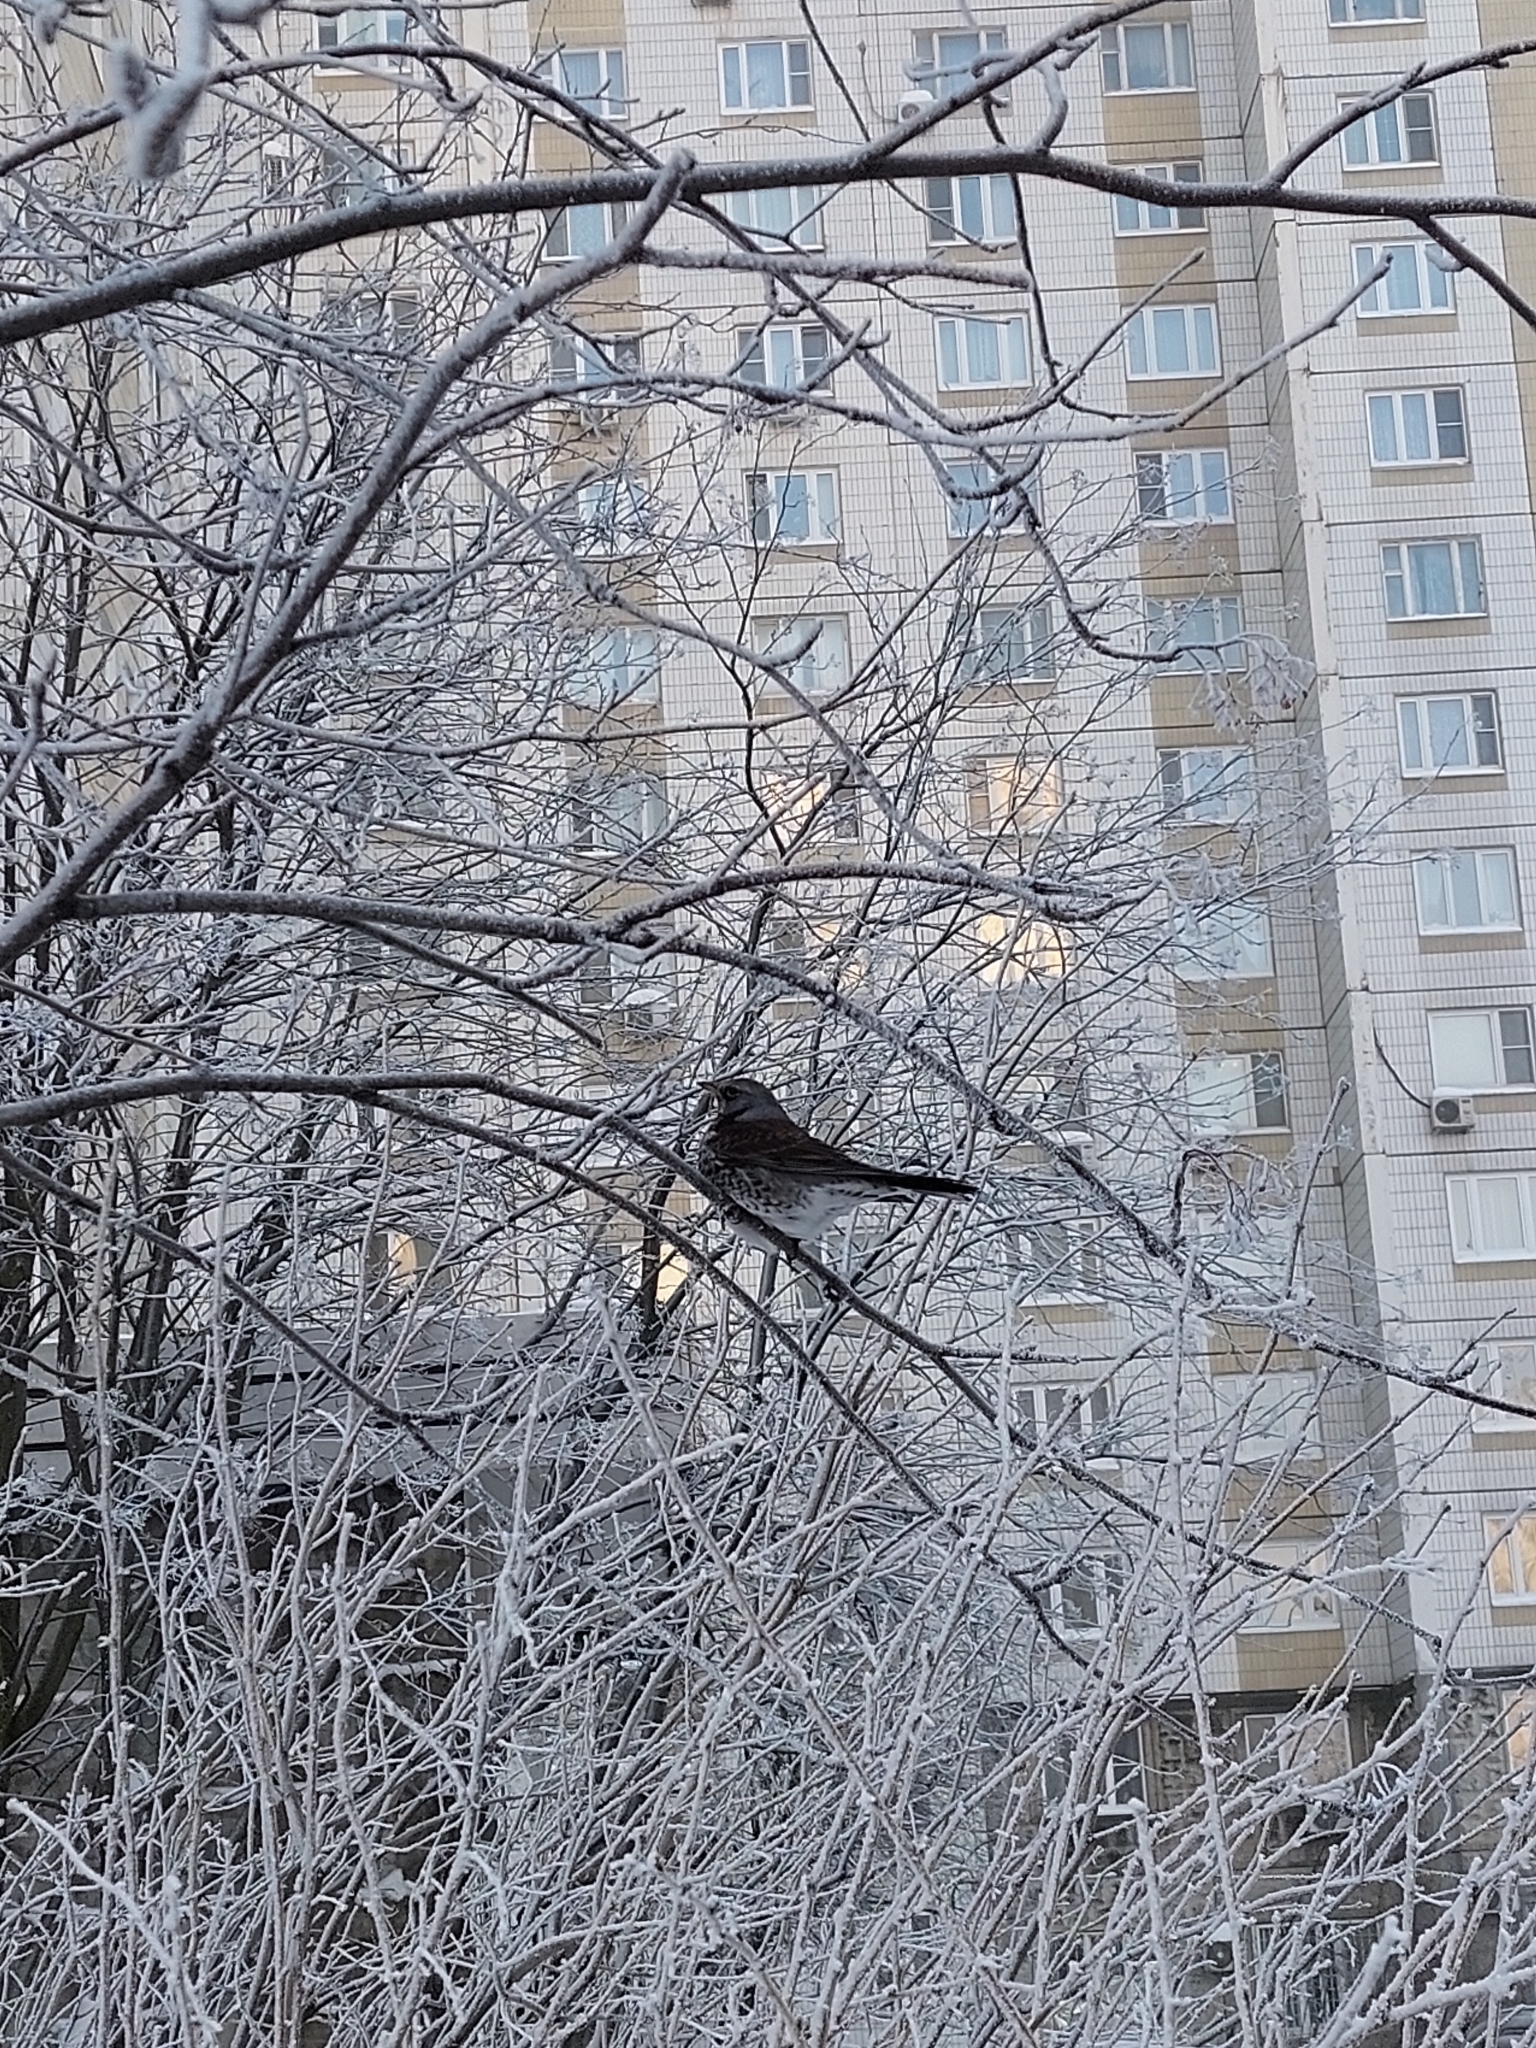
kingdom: Animalia
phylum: Chordata
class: Aves
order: Passeriformes
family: Turdidae
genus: Turdus
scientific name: Turdus pilaris
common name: Fieldfare
